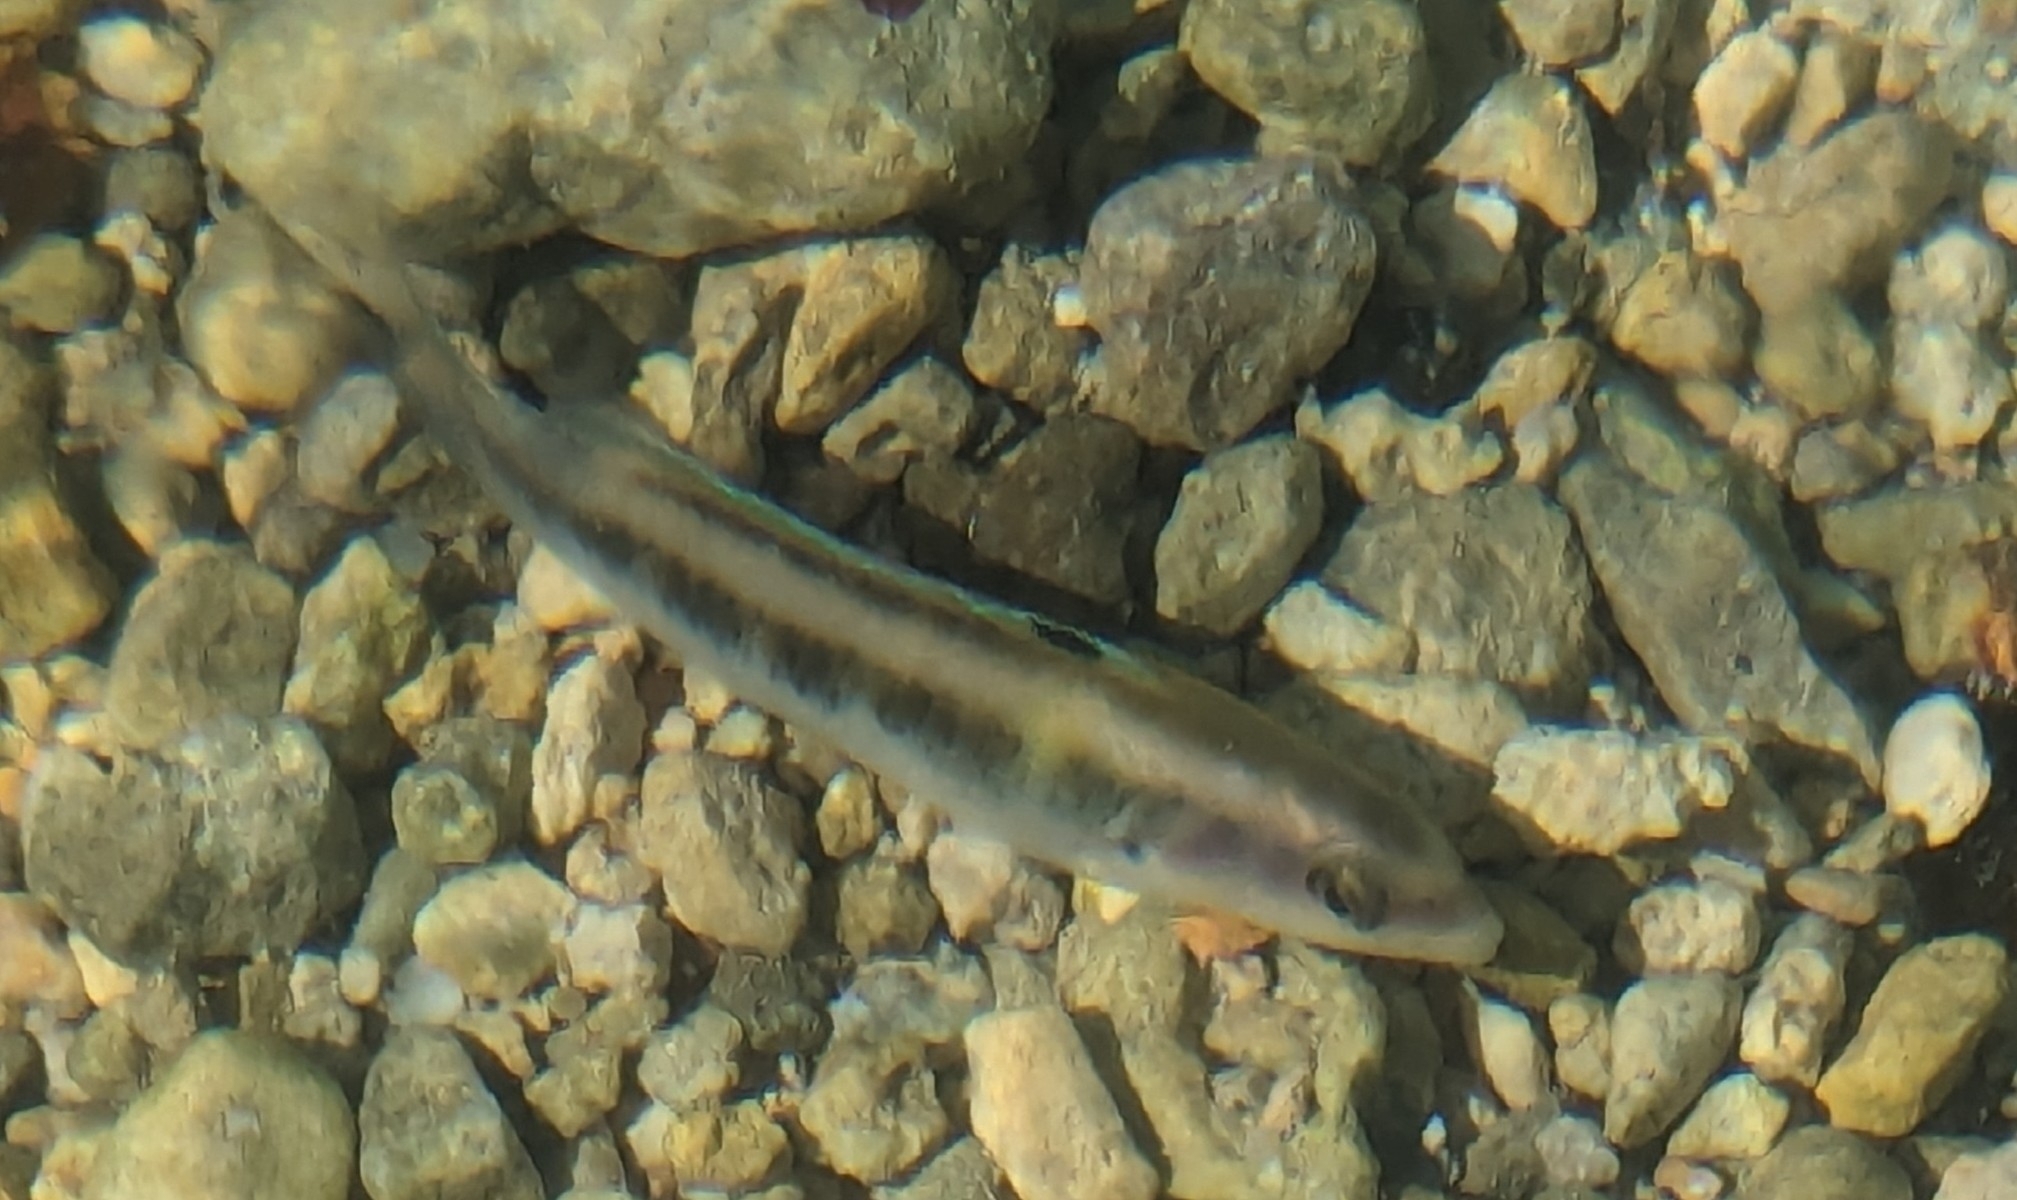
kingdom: Animalia
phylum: Chordata
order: Perciformes
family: Labridae
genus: Thalassoma
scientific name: Thalassoma bifasciatum
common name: Bluehead wrasse
